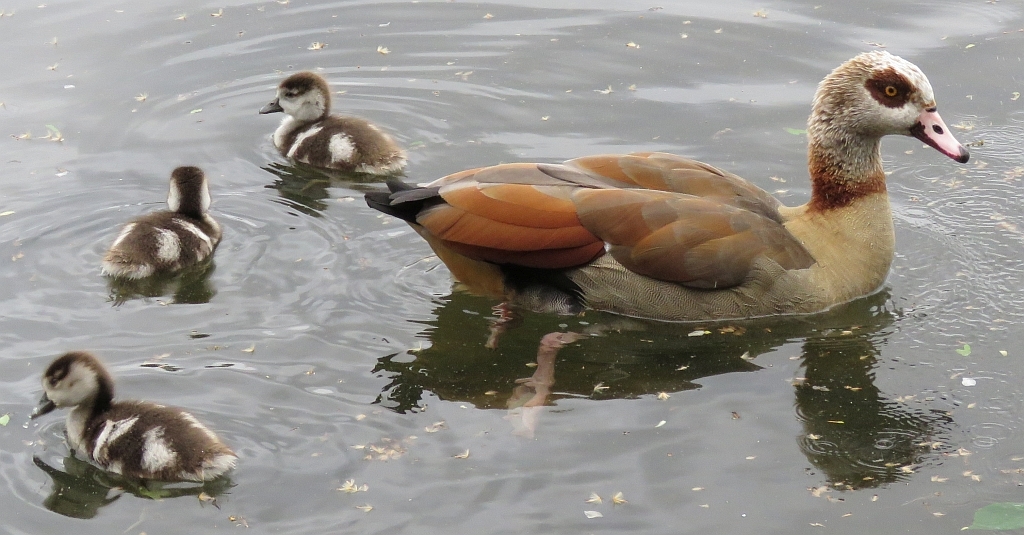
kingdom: Animalia
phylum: Chordata
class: Aves
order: Anseriformes
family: Anatidae
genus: Alopochen
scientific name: Alopochen aegyptiaca
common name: Egyptian goose
